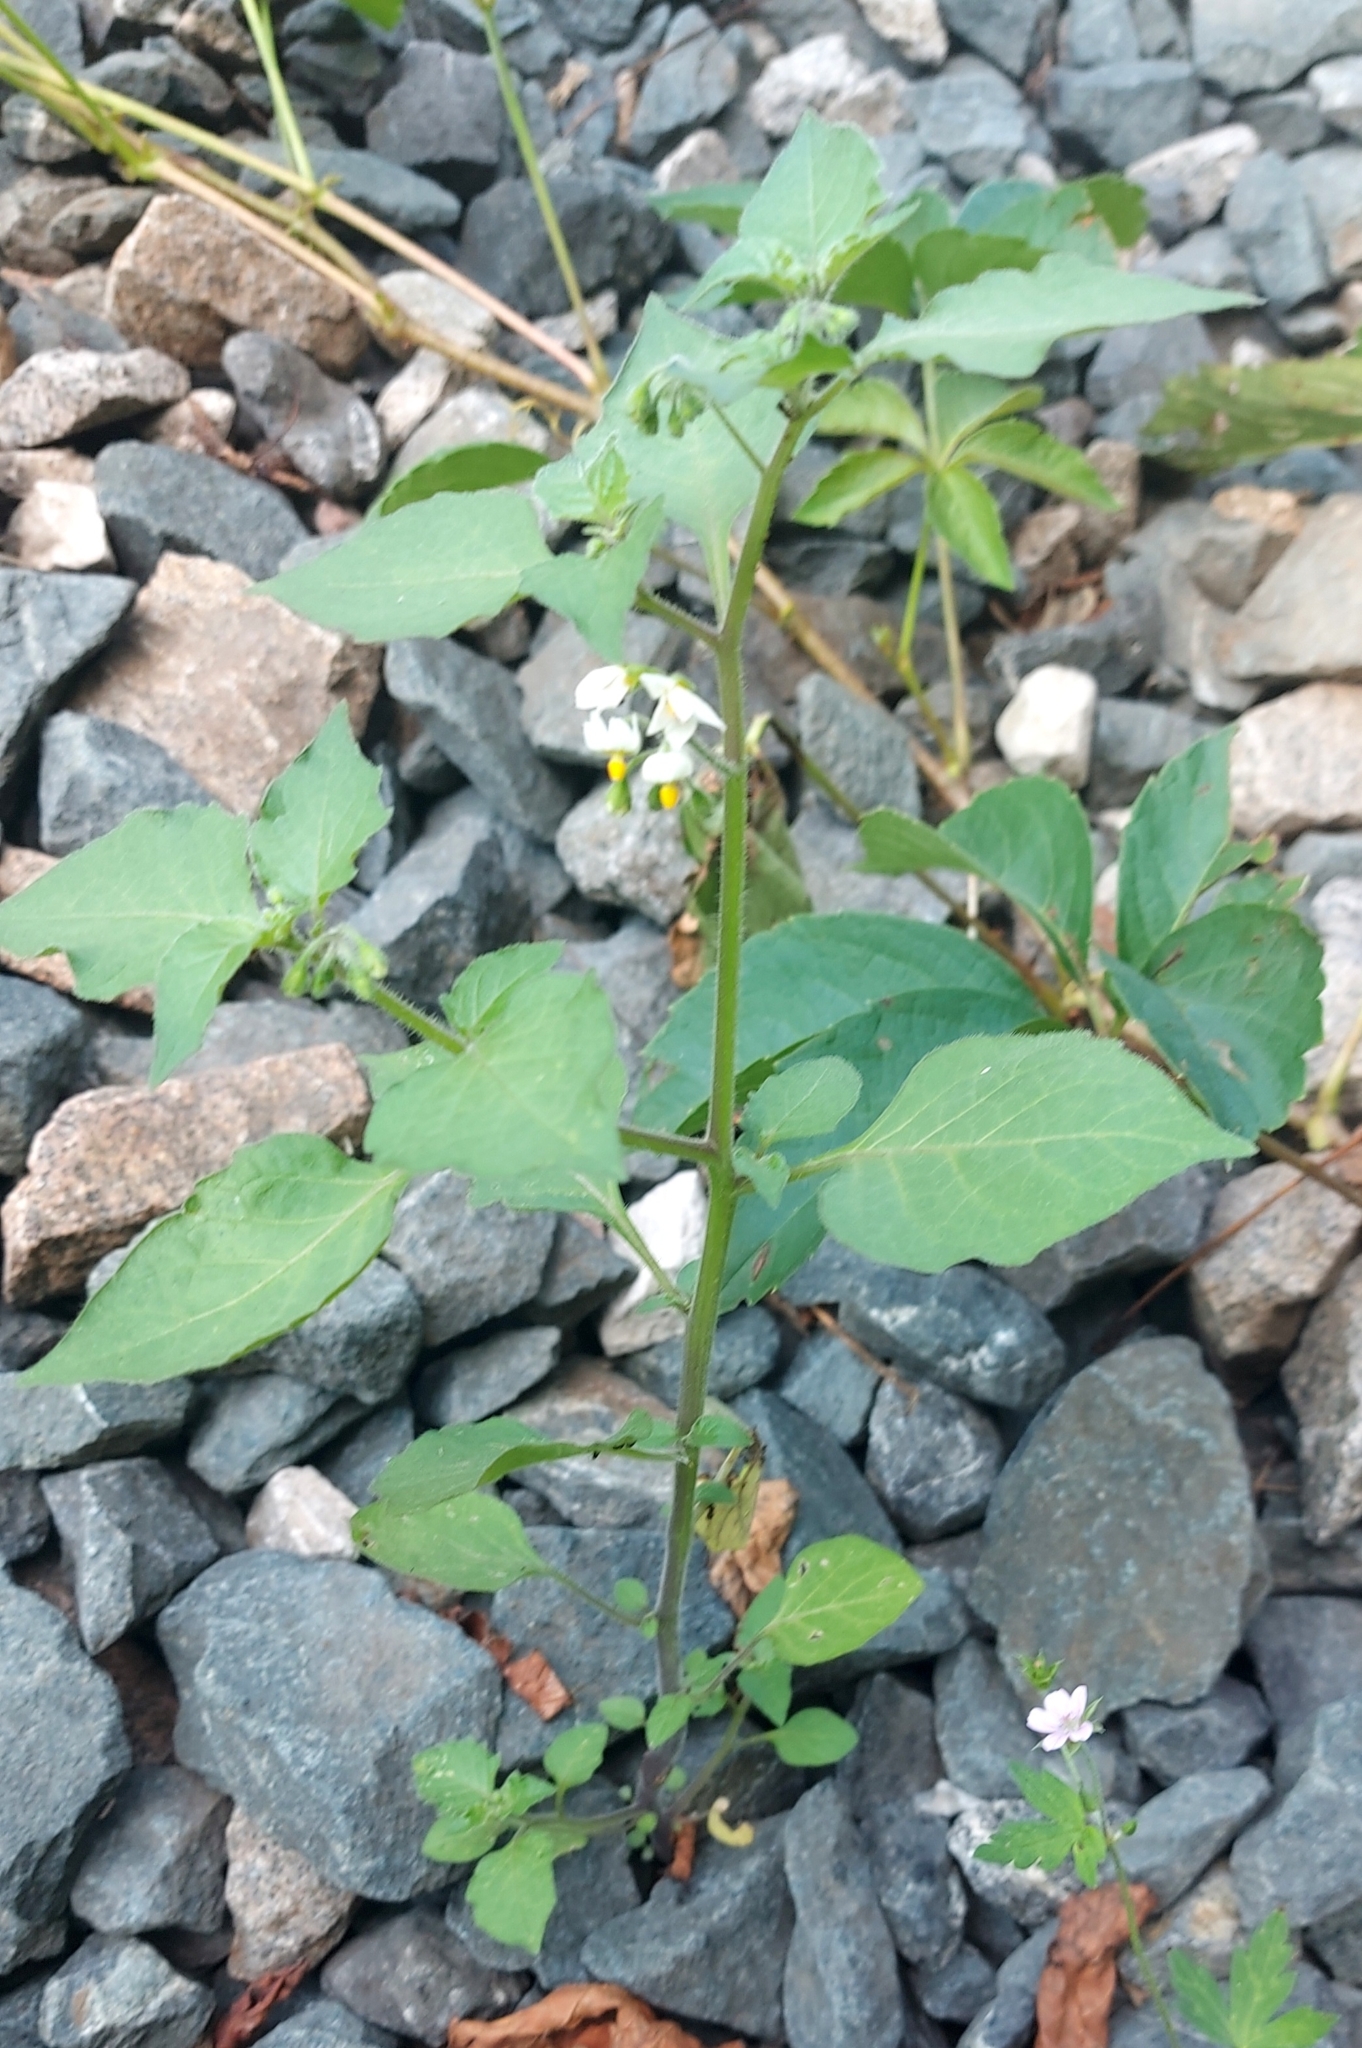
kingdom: Plantae
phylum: Tracheophyta
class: Magnoliopsida
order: Solanales
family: Solanaceae
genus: Solanum
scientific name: Solanum nigrum
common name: Black nightshade
